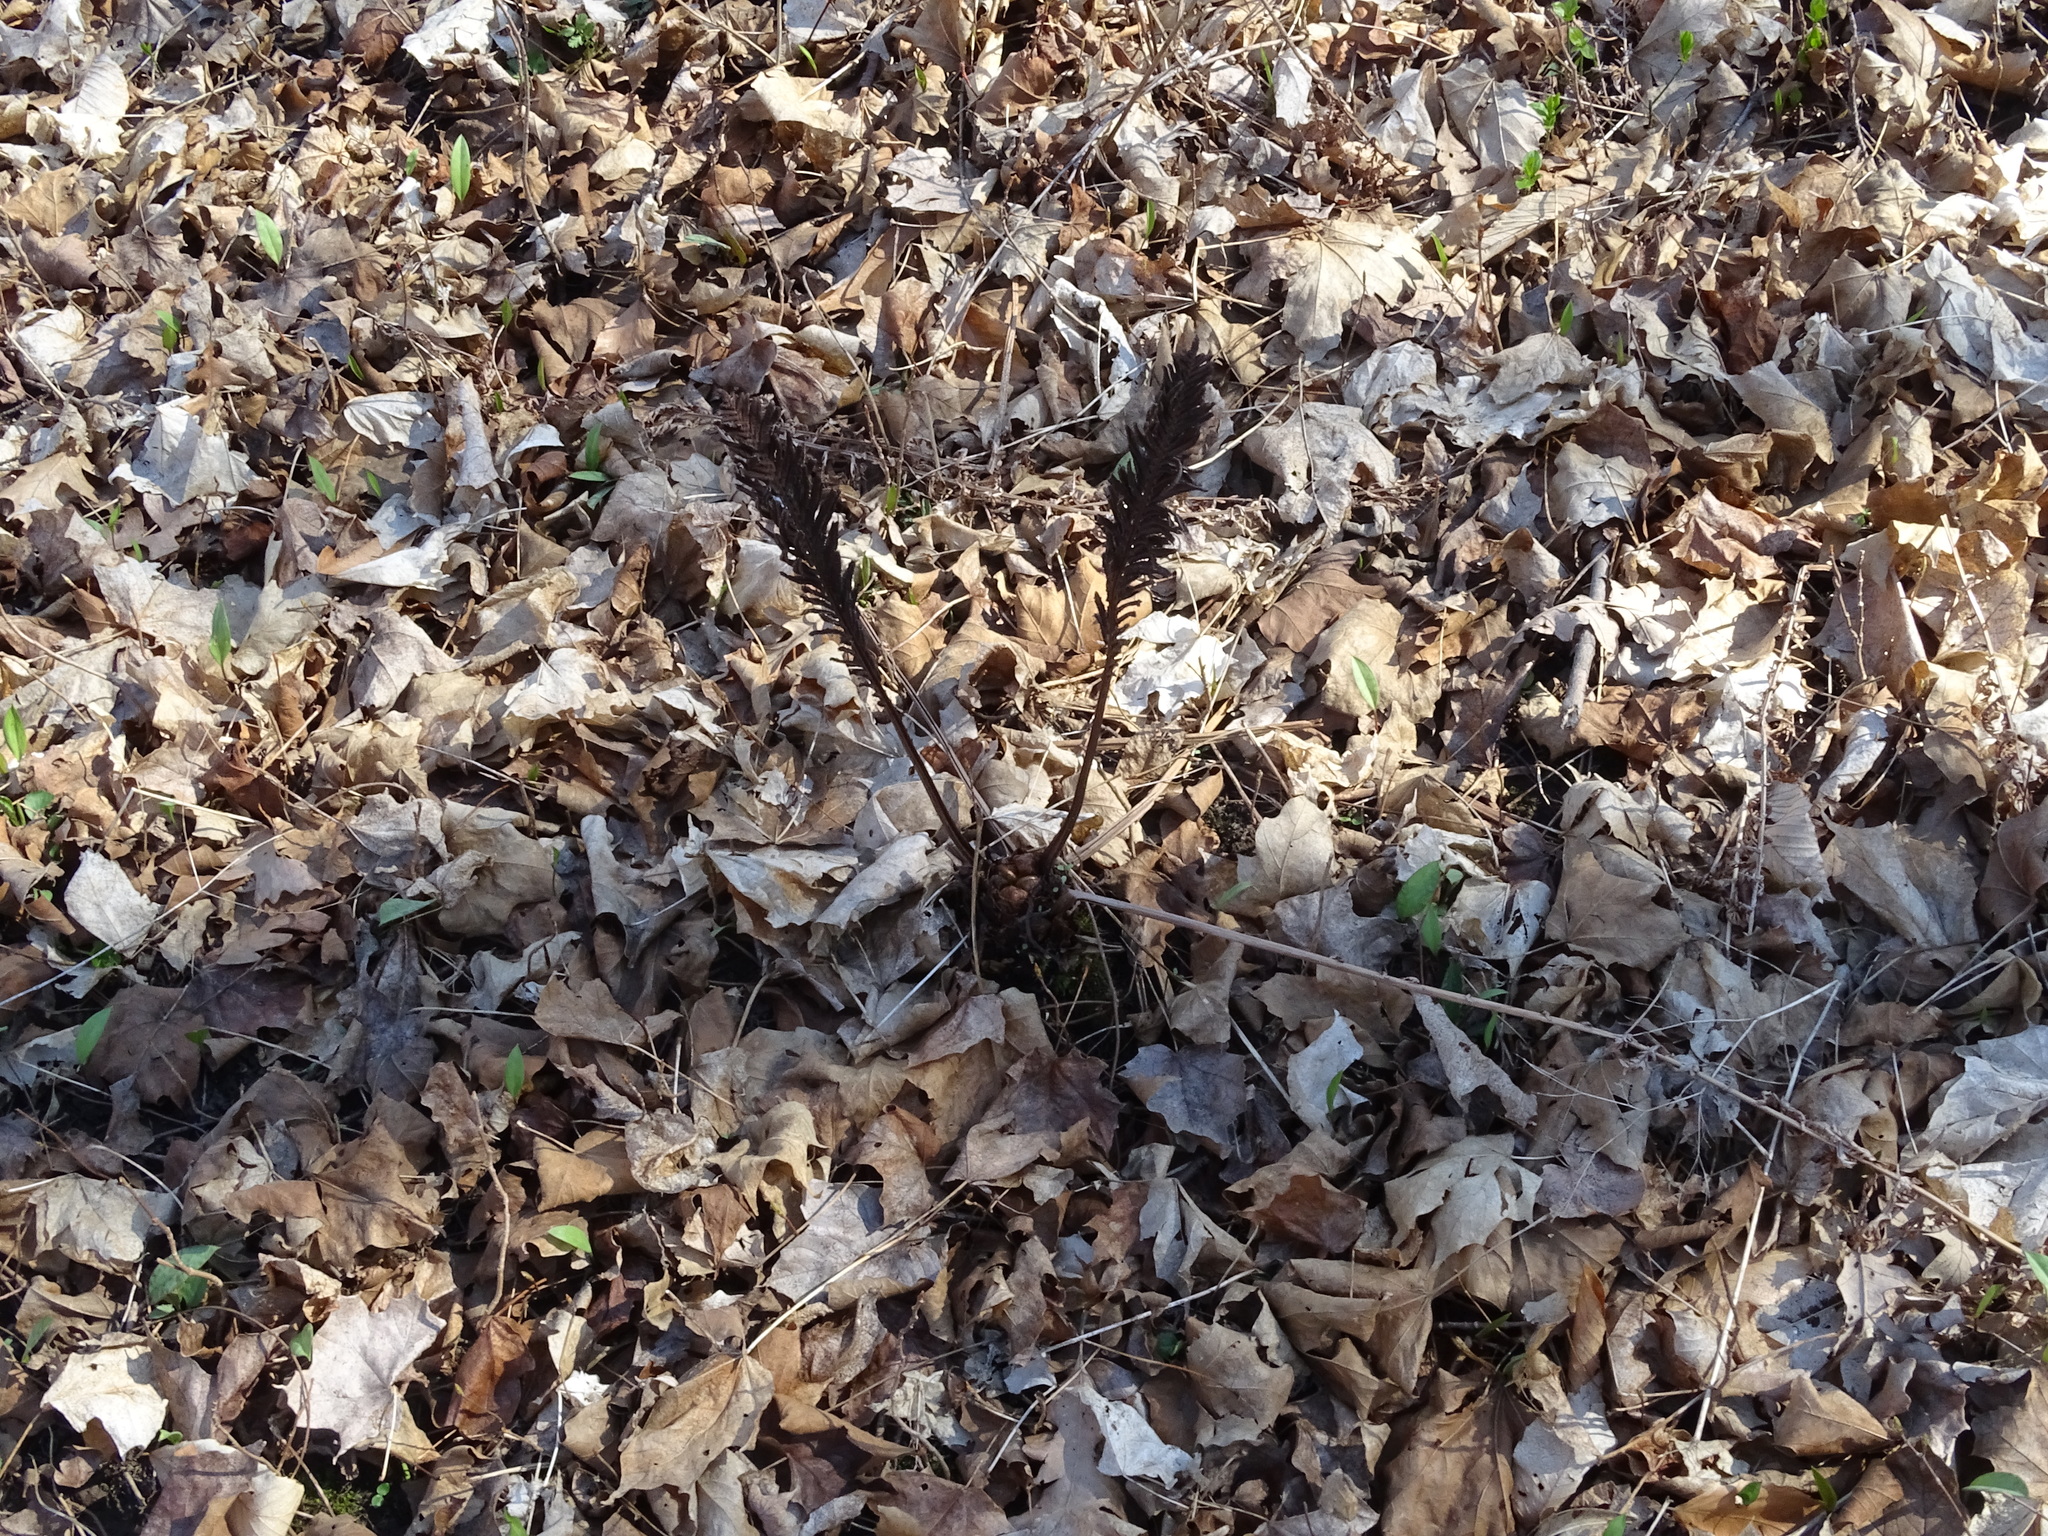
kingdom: Plantae
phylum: Tracheophyta
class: Polypodiopsida
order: Polypodiales
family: Onocleaceae
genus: Matteuccia
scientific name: Matteuccia struthiopteris
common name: Ostrich fern
